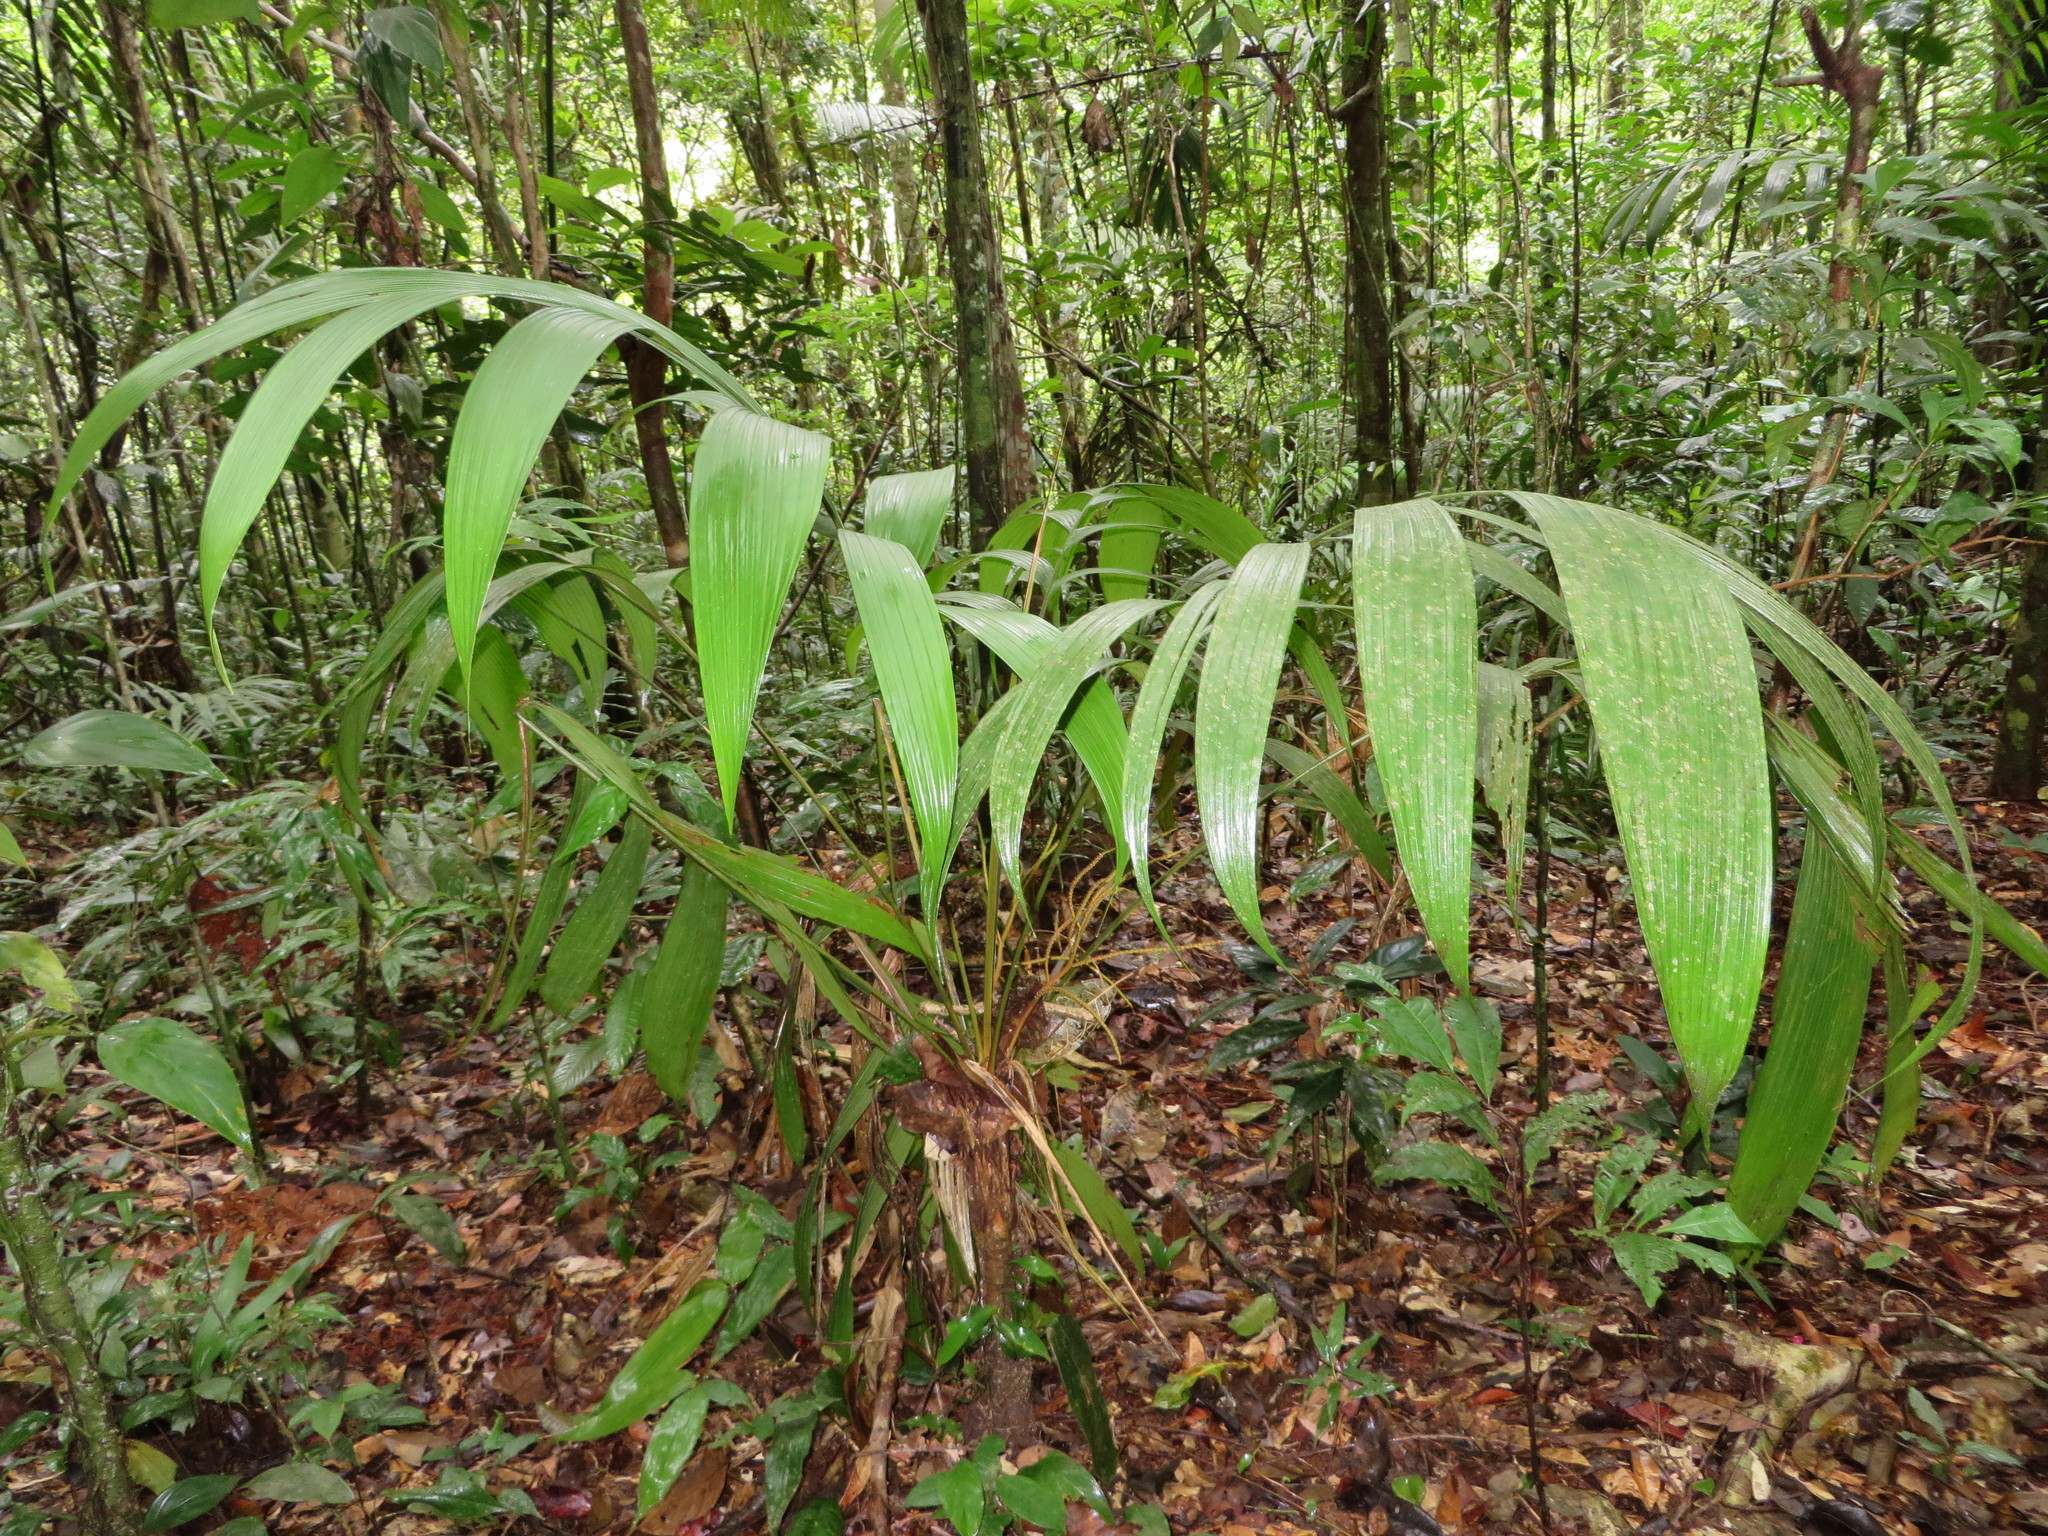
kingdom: Plantae
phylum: Tracheophyta
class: Liliopsida
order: Arecales
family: Arecaceae
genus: Pholidostachys
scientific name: Pholidostachys synanthera
